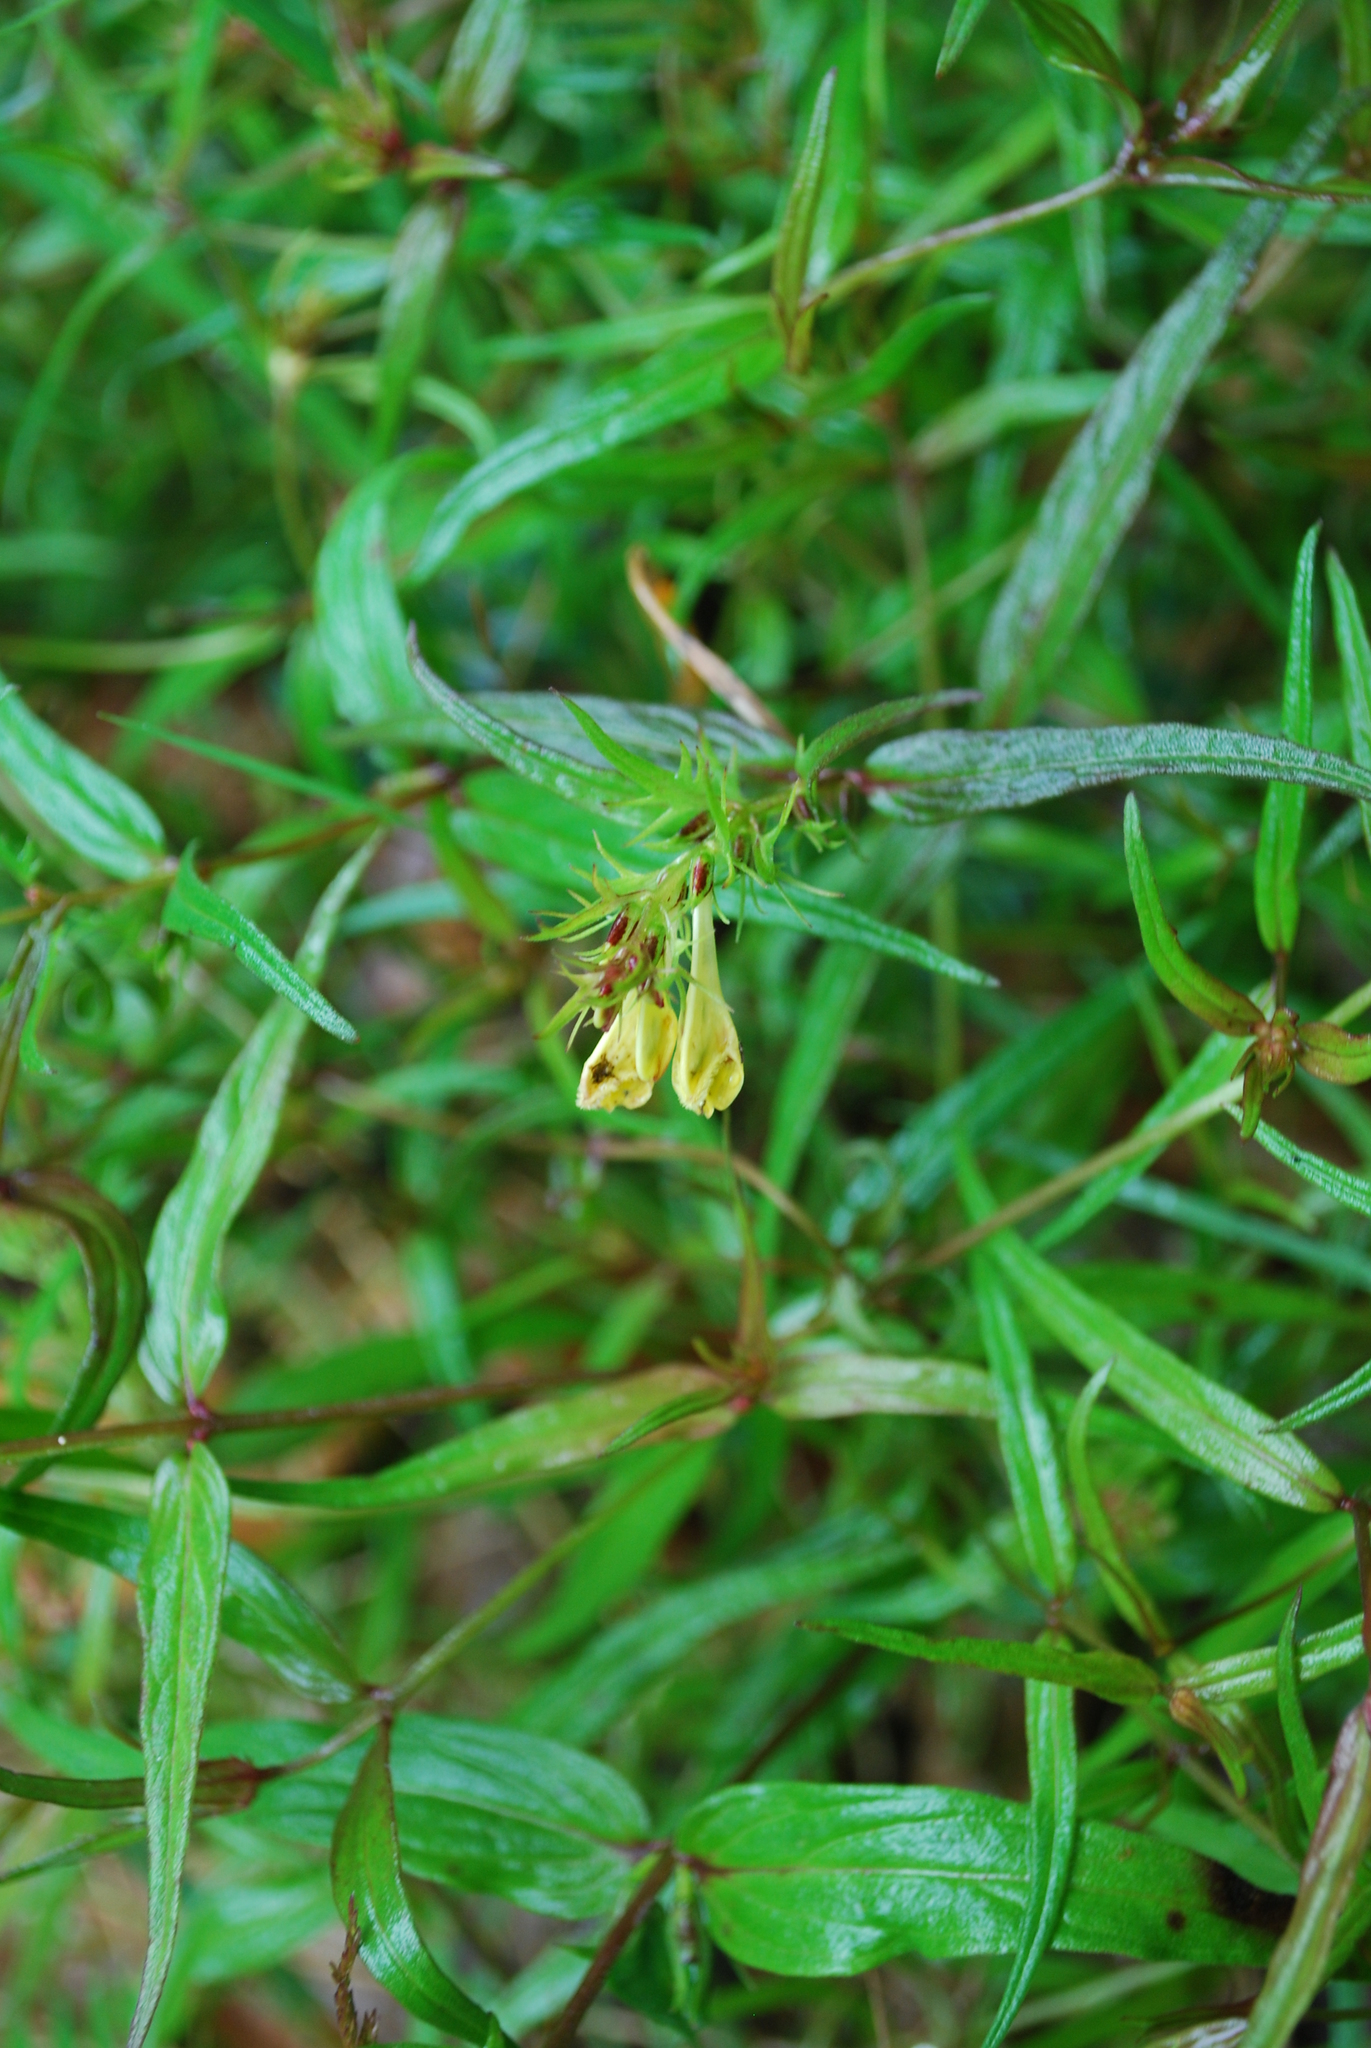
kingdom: Plantae
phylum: Tracheophyta
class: Magnoliopsida
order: Lamiales
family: Orobanchaceae
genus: Melampyrum
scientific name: Melampyrum pratense
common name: Common cow-wheat
